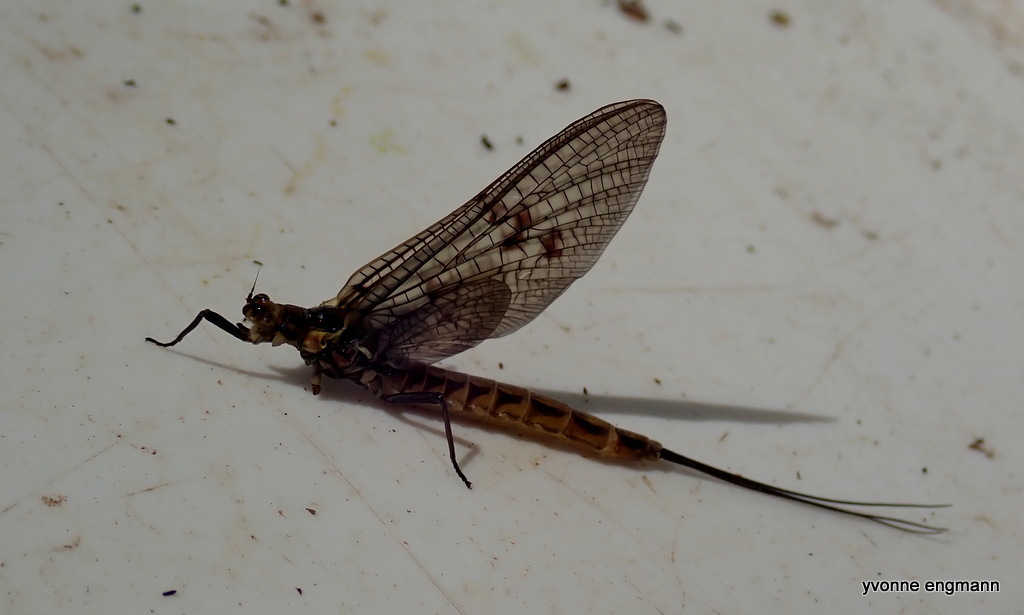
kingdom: Animalia
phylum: Arthropoda
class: Insecta
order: Ephemeroptera
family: Ephemeridae
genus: Ephemera
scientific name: Ephemera vulgata
